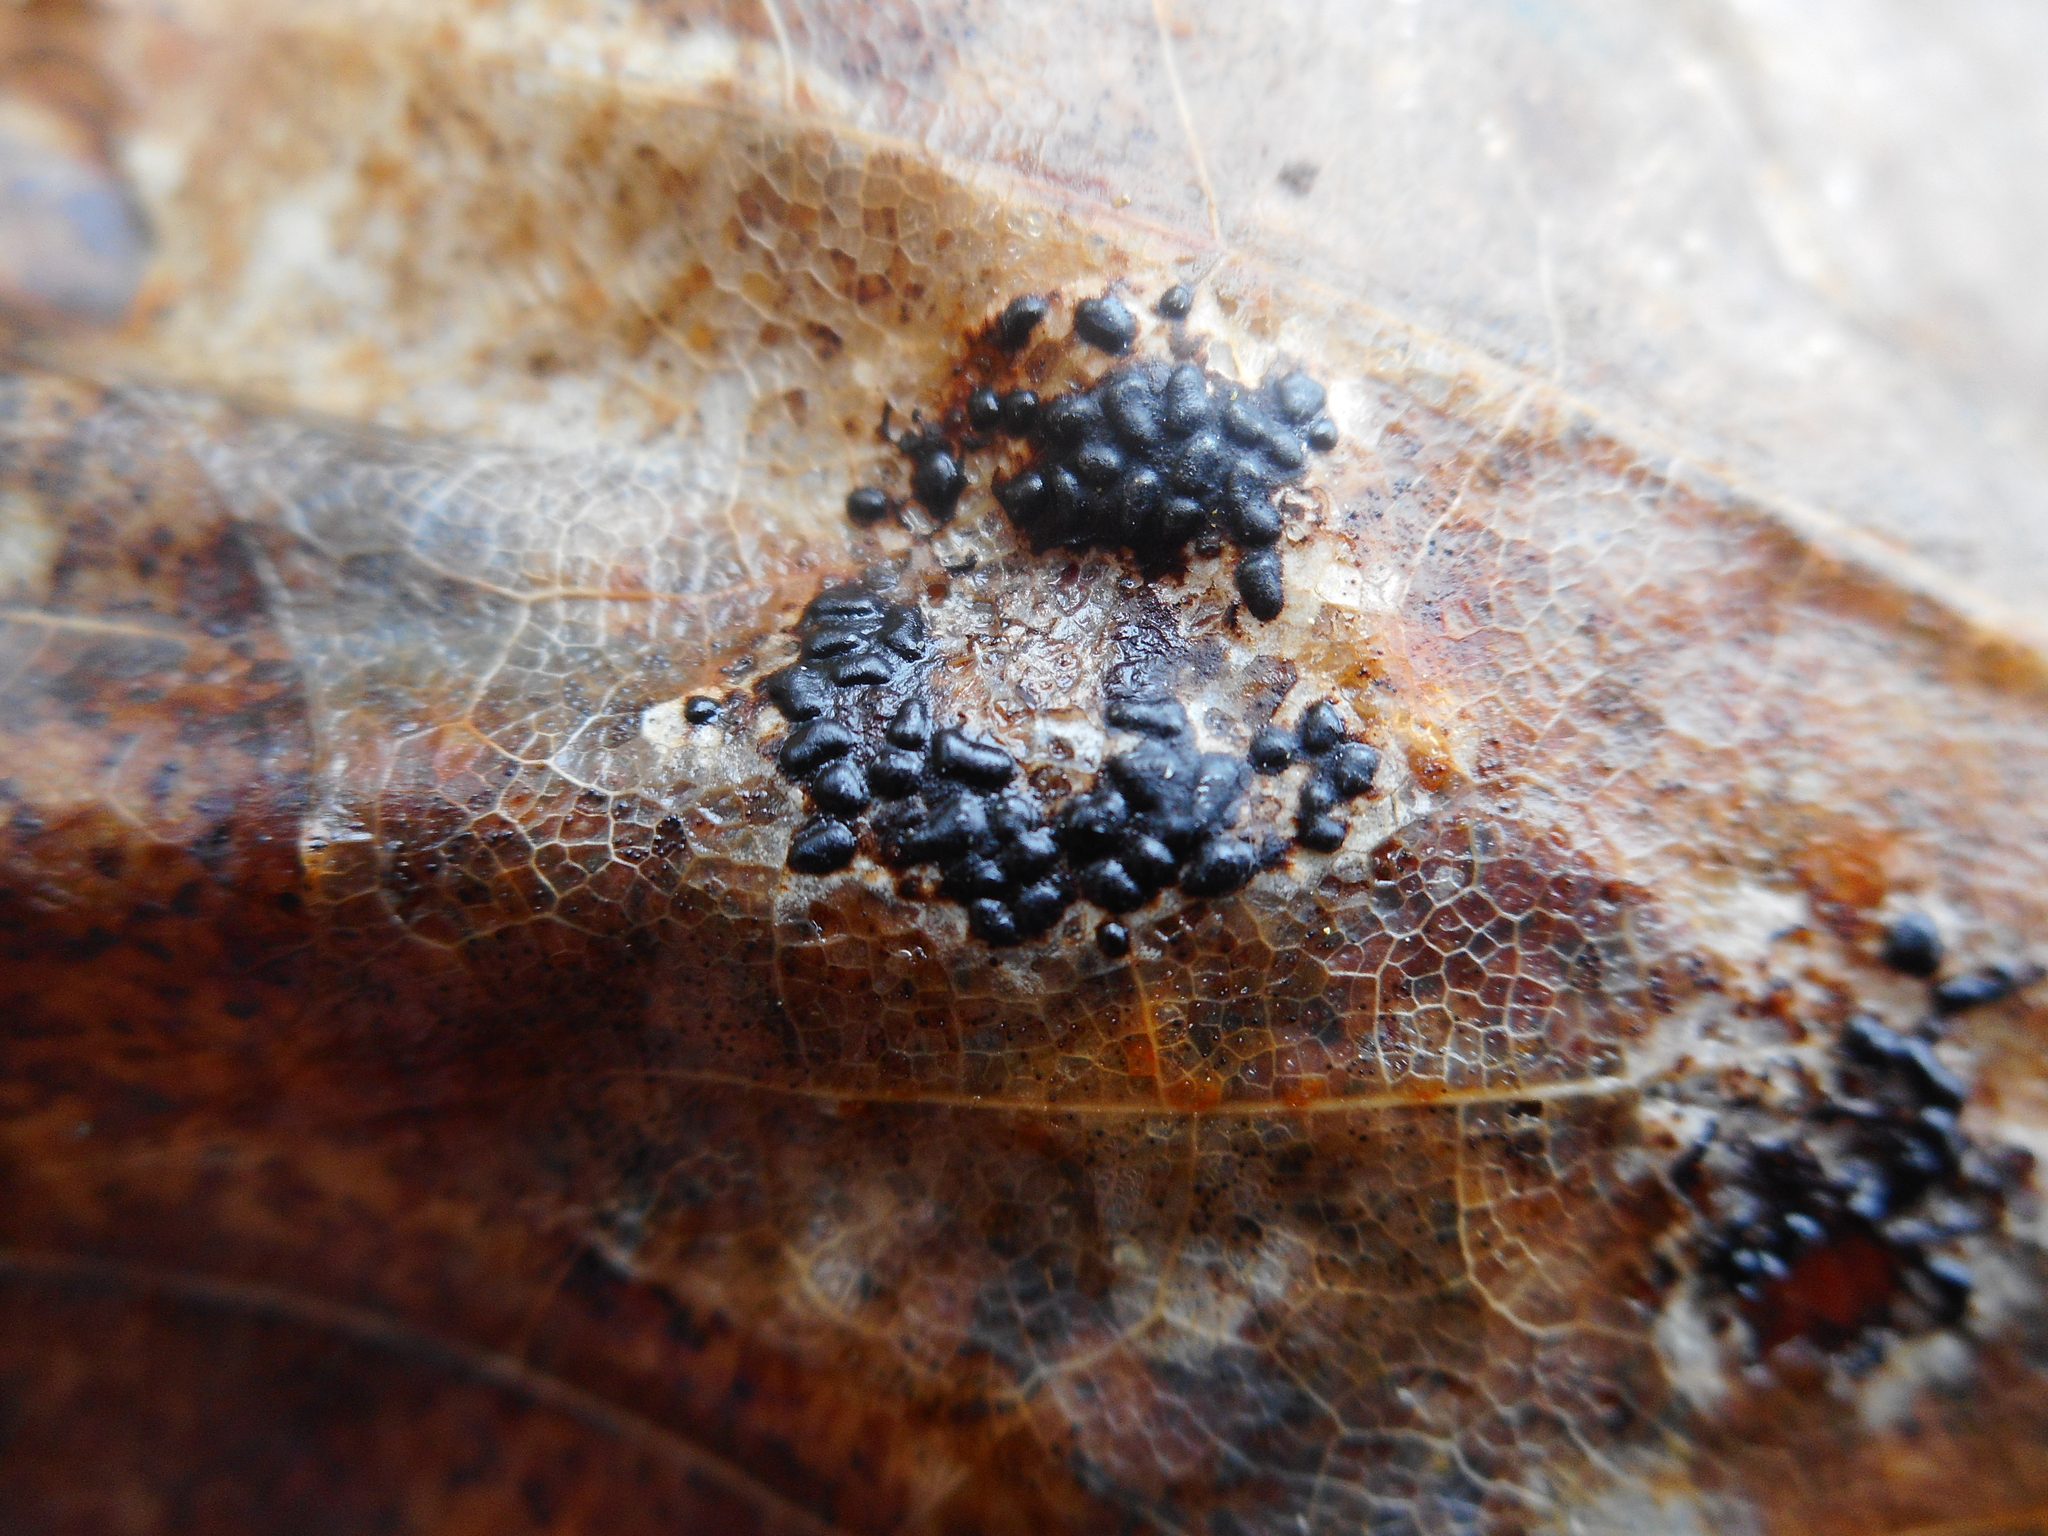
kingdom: Fungi
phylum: Ascomycota
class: Leotiomycetes
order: Rhytismatales
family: Rhytismataceae
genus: Rhytisma
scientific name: Rhytisma acerinum
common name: European tar spot
